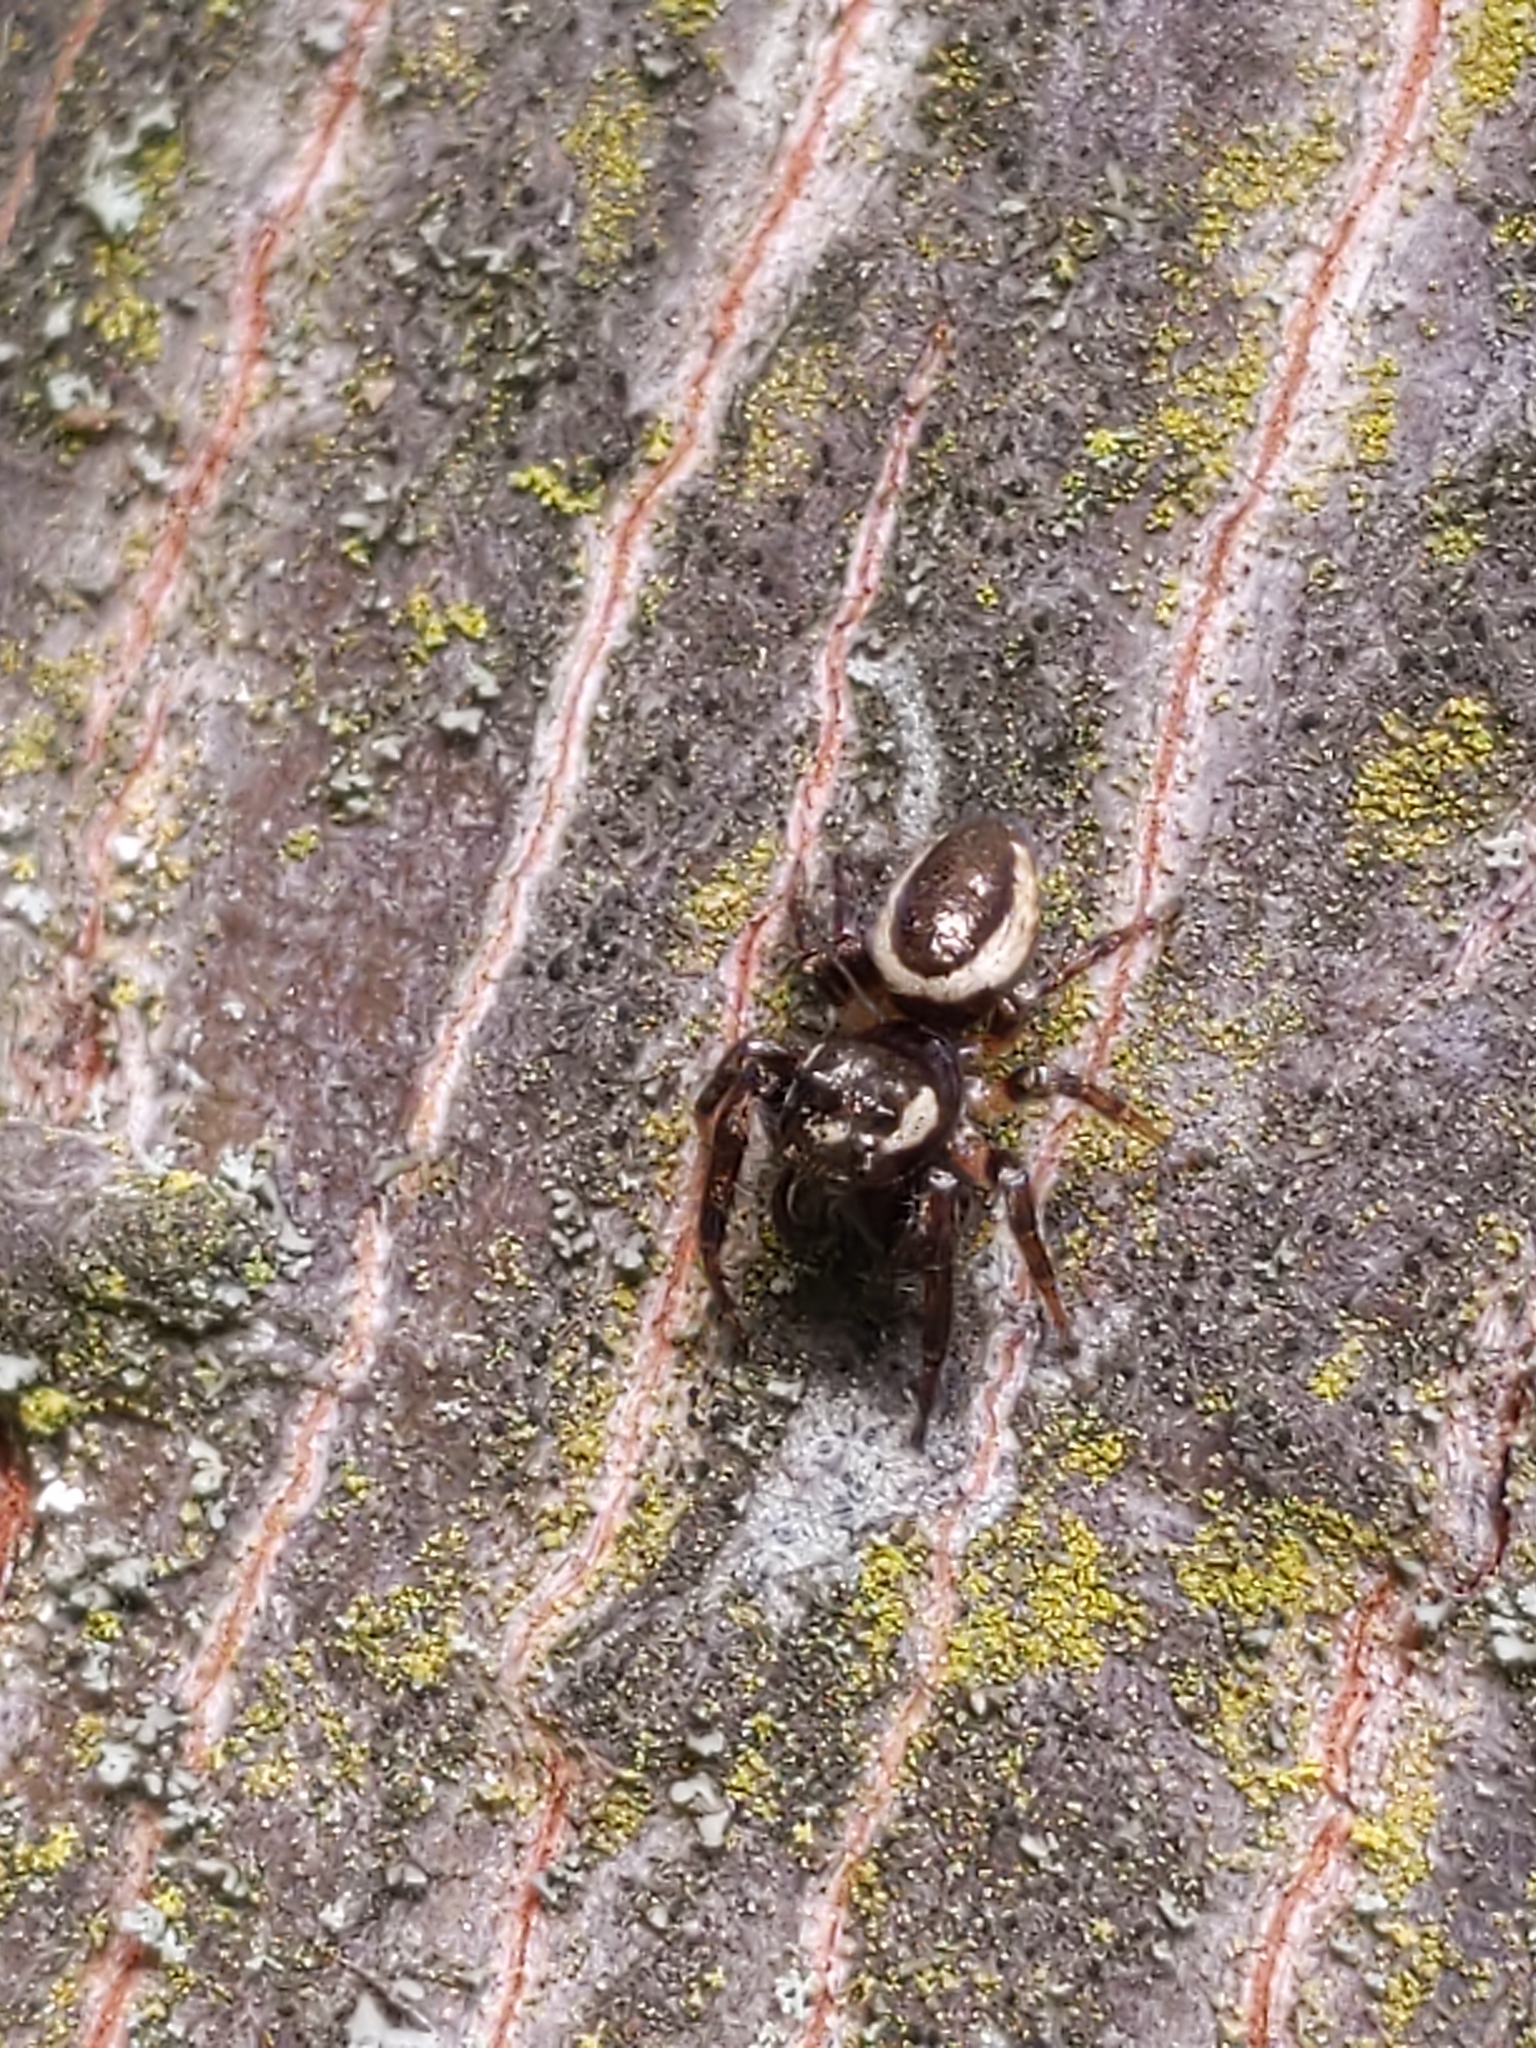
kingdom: Animalia
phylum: Arthropoda
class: Arachnida
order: Araneae
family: Salticidae
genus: Eris
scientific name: Eris militaris
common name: Bronze jumper
